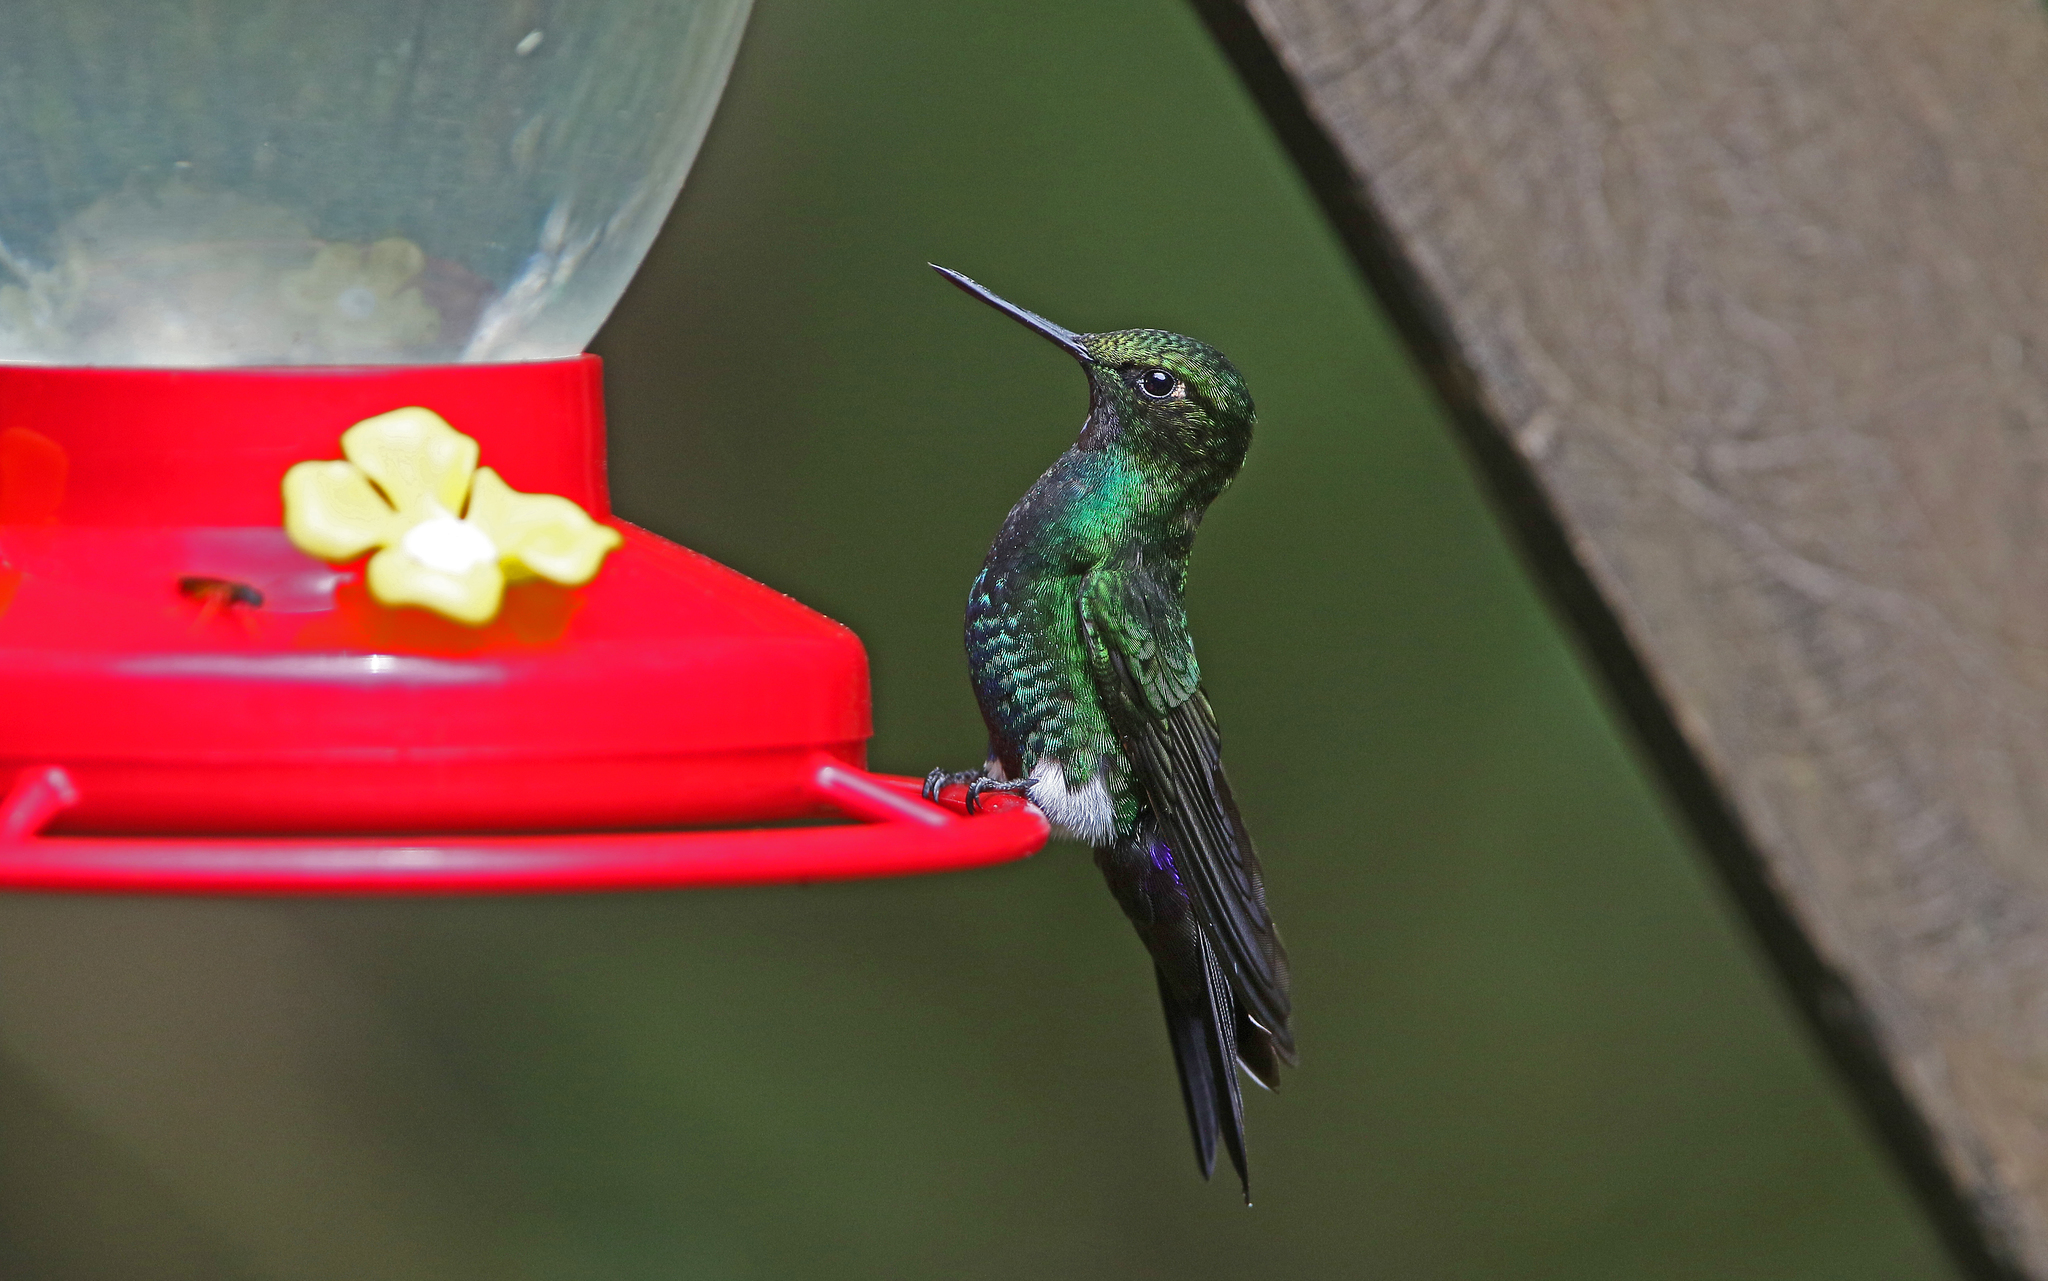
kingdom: Animalia
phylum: Chordata
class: Aves
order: Apodiformes
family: Trochilidae
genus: Eriocnemis
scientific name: Eriocnemis vestita
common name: Glowing puffleg
